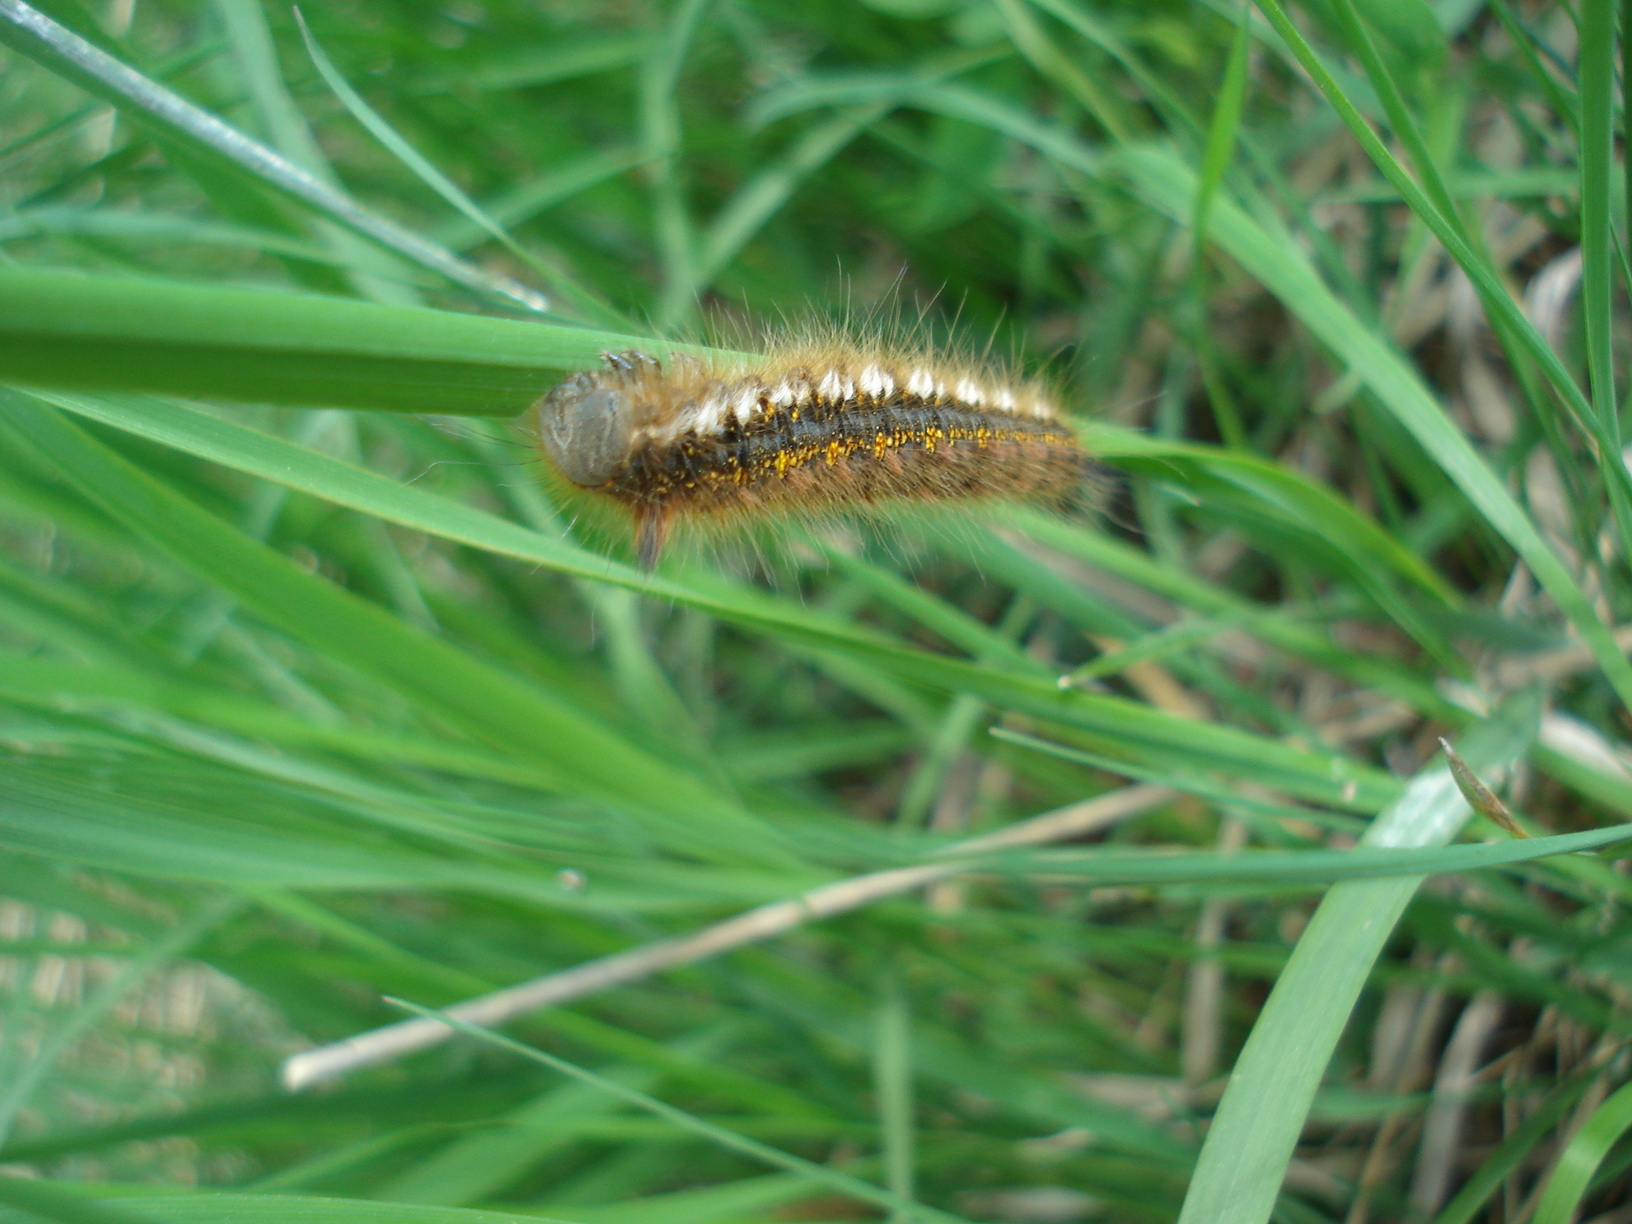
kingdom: Animalia
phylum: Arthropoda
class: Insecta
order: Lepidoptera
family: Lasiocampidae
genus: Euthrix
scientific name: Euthrix potatoria
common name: Drinker
